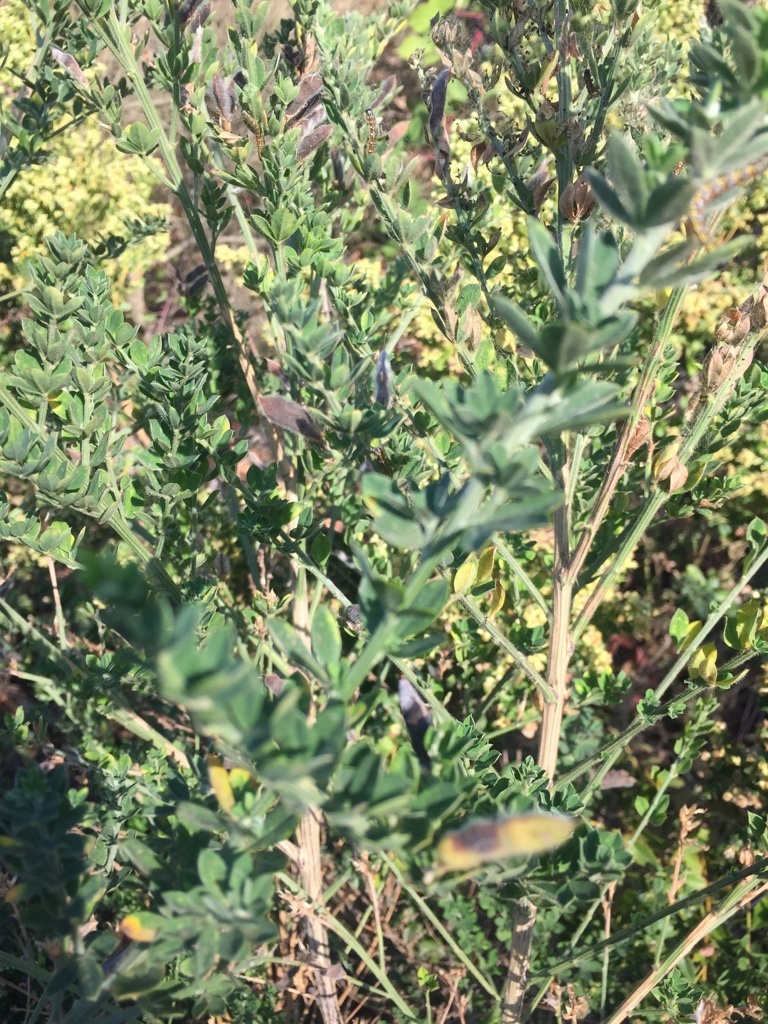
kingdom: Plantae
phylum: Tracheophyta
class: Magnoliopsida
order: Asterales
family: Asteraceae
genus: Baccharis
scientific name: Baccharis pilularis
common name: Coyotebrush
